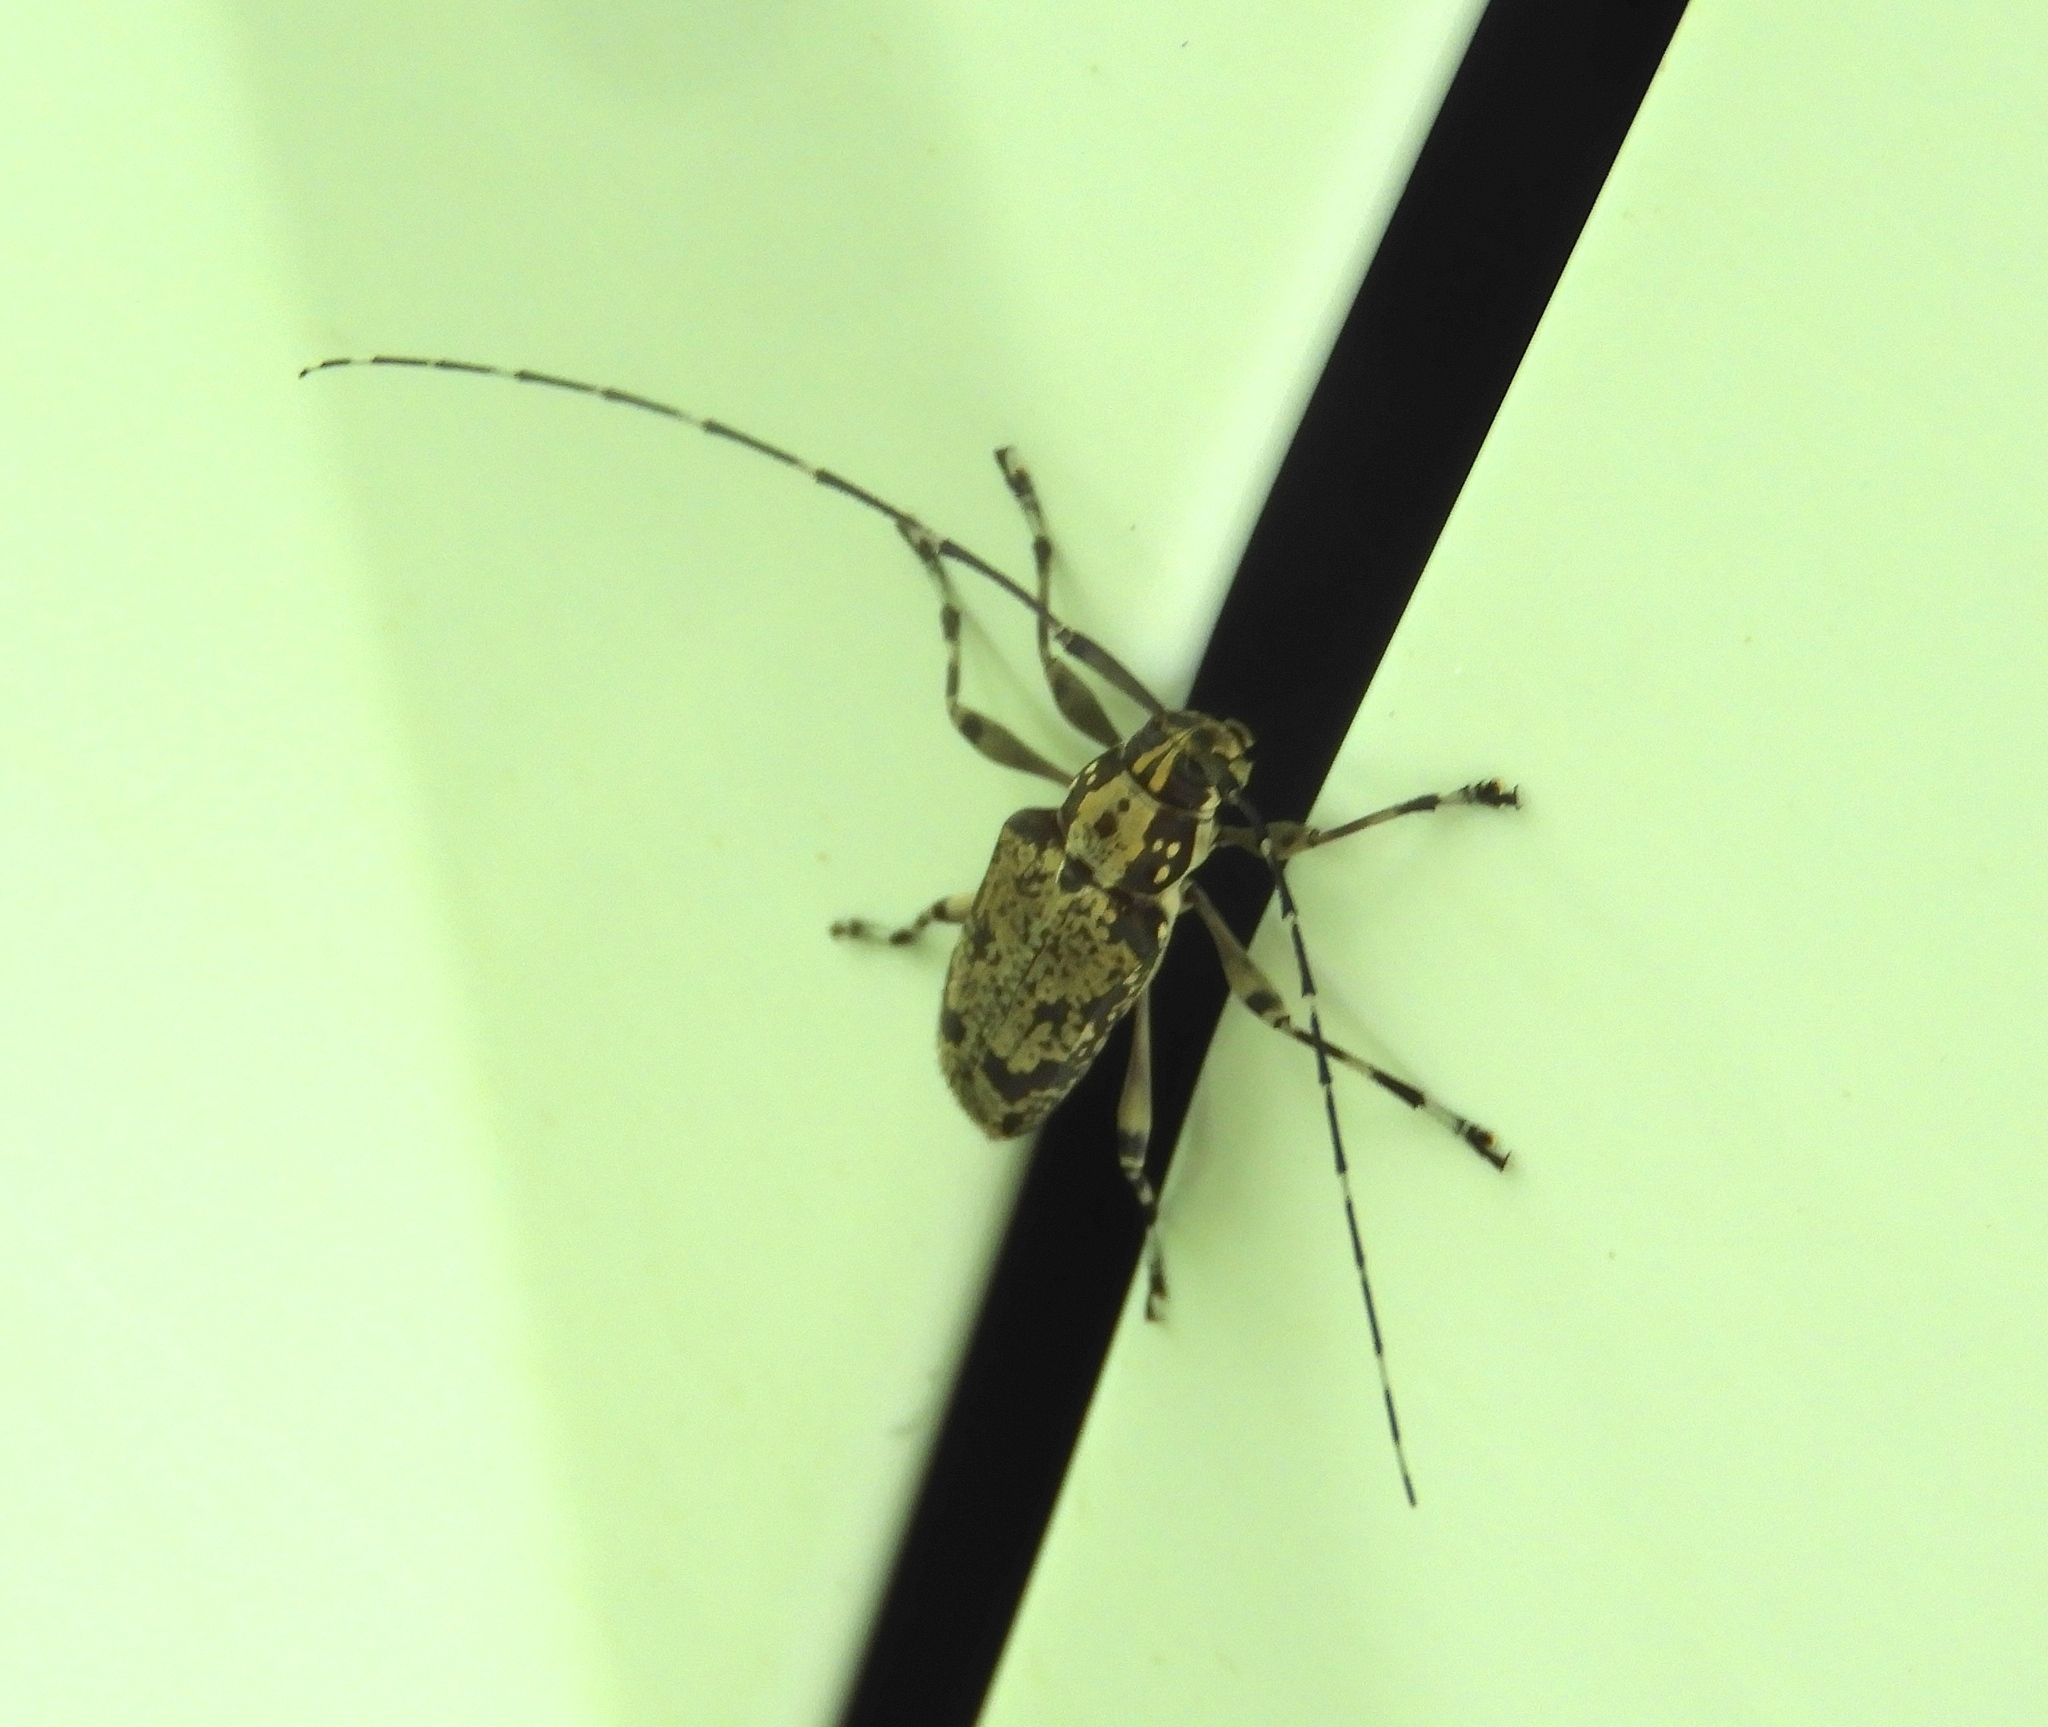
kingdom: Animalia
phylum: Arthropoda
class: Insecta
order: Coleoptera
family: Cerambycidae
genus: Colobothea
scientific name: Colobothea
